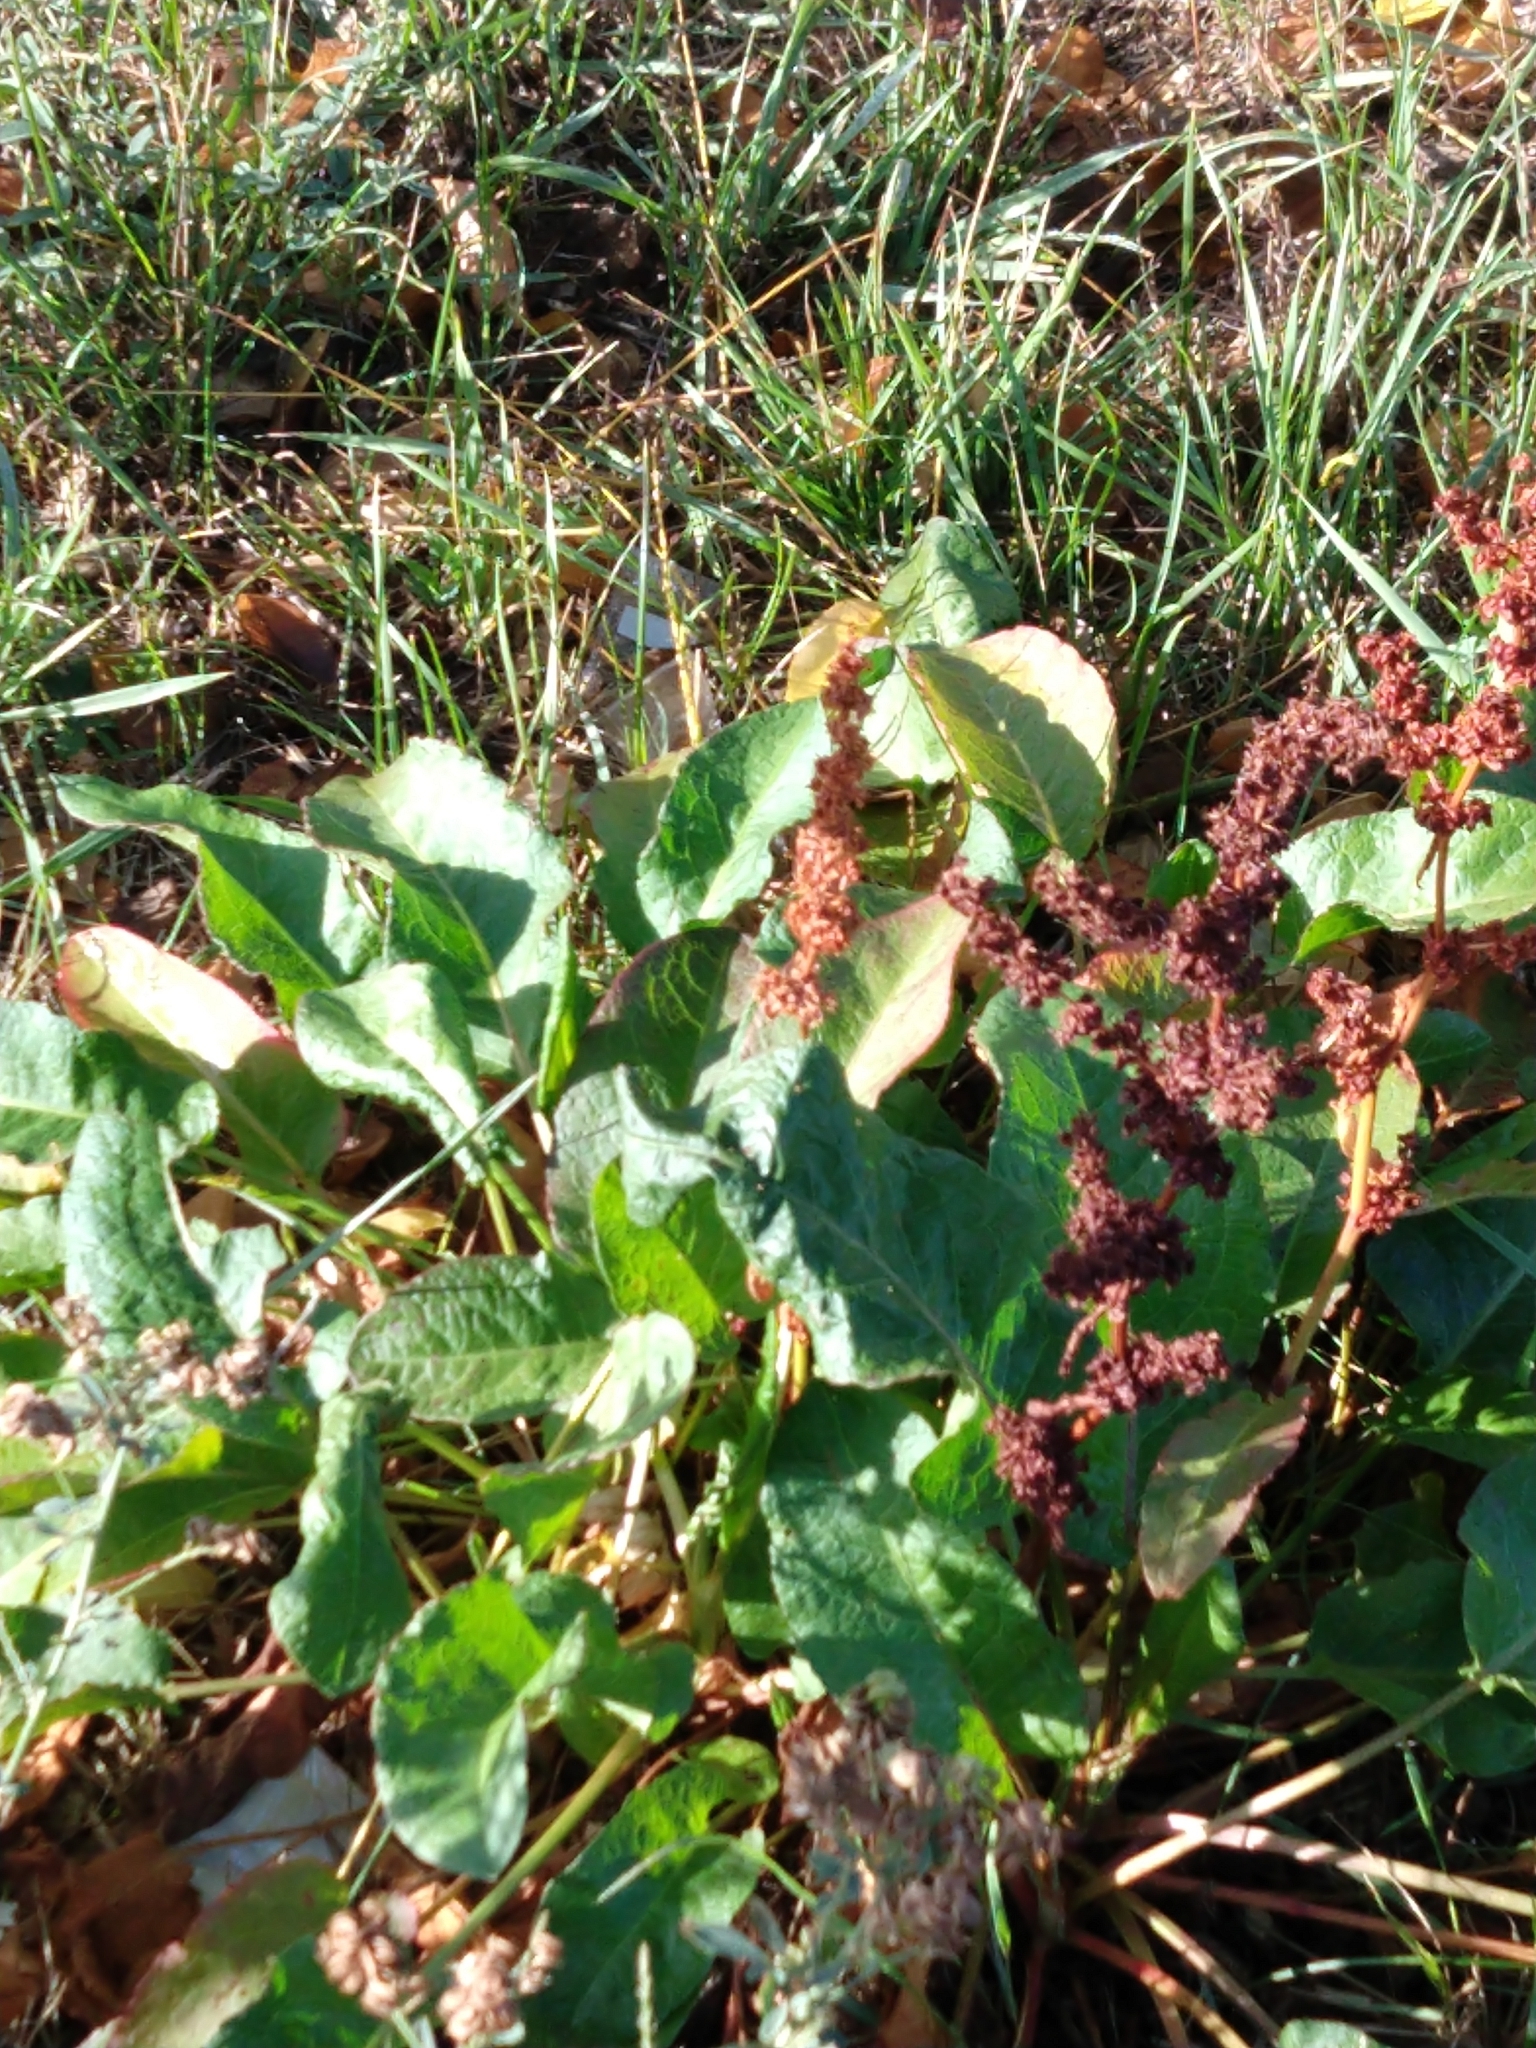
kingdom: Plantae
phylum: Tracheophyta
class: Magnoliopsida
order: Caryophyllales
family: Polygonaceae
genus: Rumex
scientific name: Rumex obtusifolius
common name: Bitter dock
